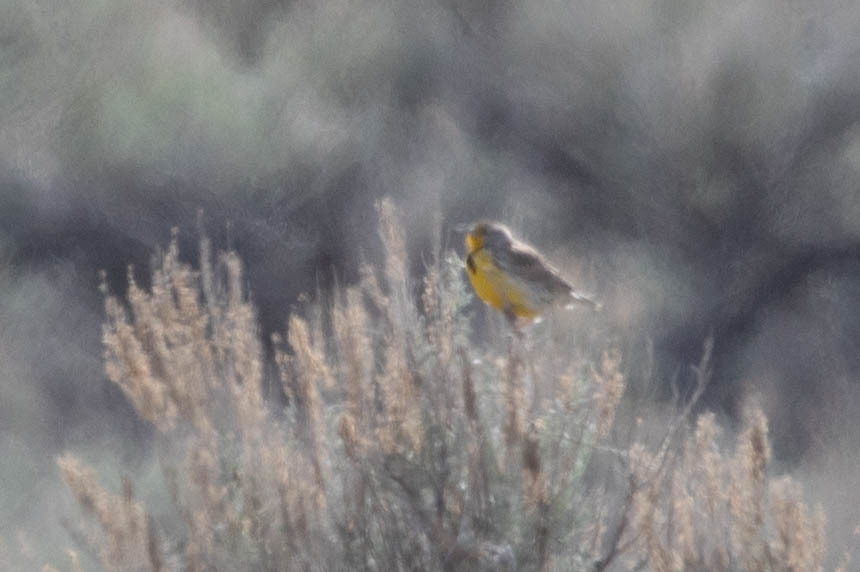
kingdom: Animalia
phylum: Chordata
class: Aves
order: Passeriformes
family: Icteridae
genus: Sturnella
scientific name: Sturnella neglecta
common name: Western meadowlark
